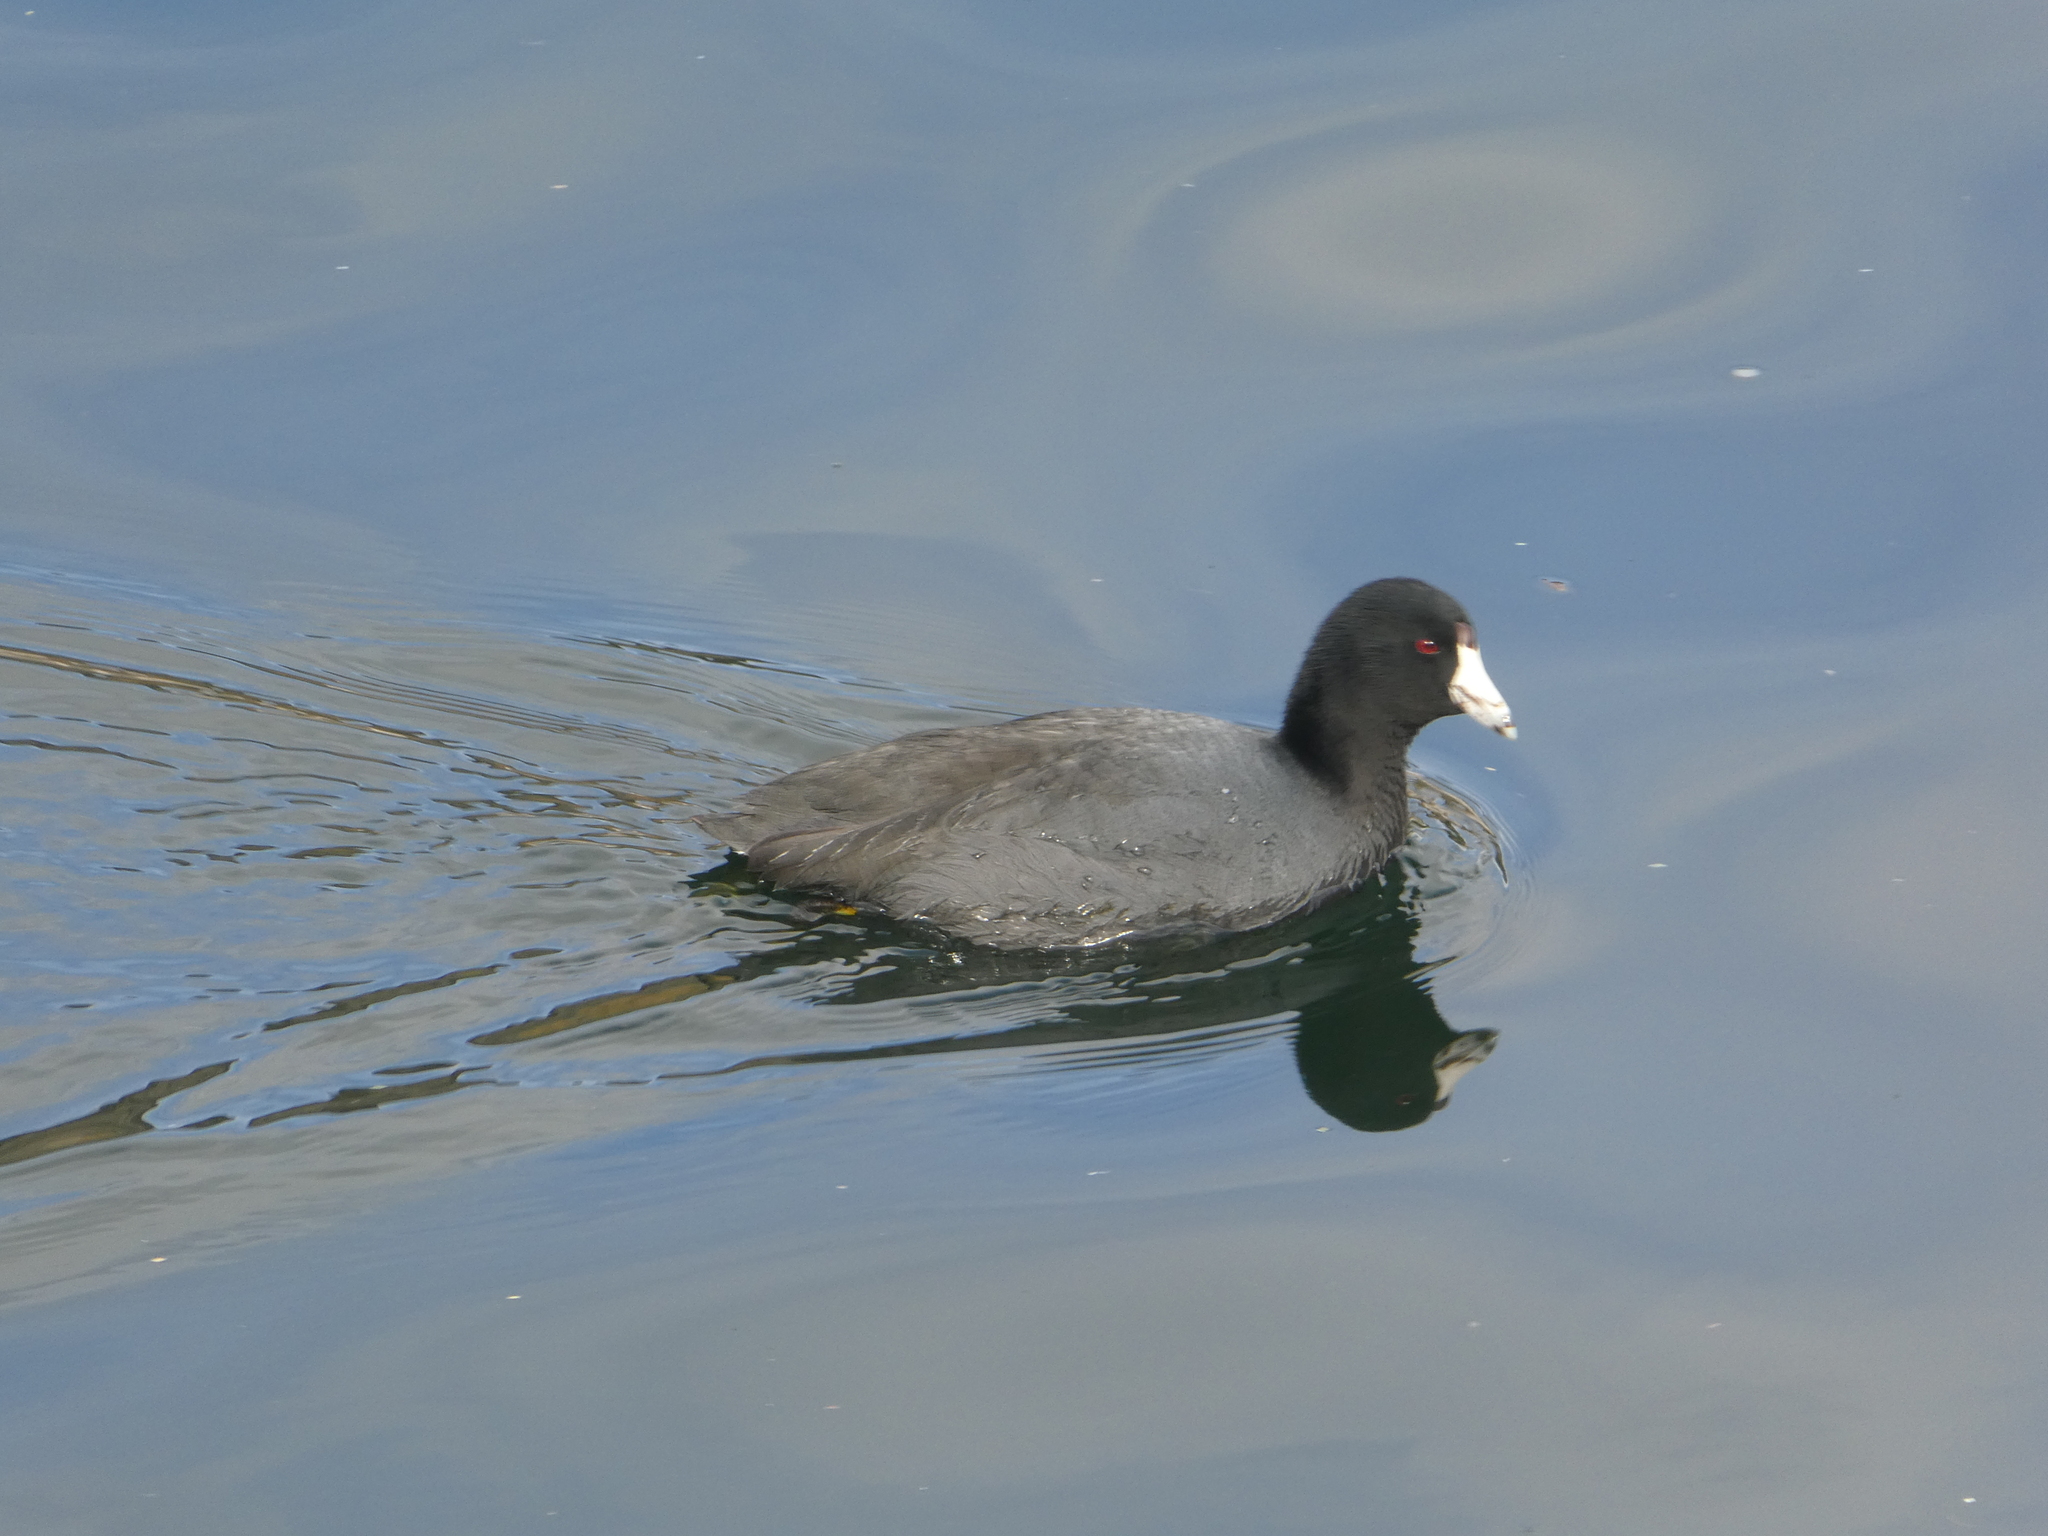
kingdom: Animalia
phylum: Chordata
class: Aves
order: Gruiformes
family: Rallidae
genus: Fulica
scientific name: Fulica americana
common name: American coot
